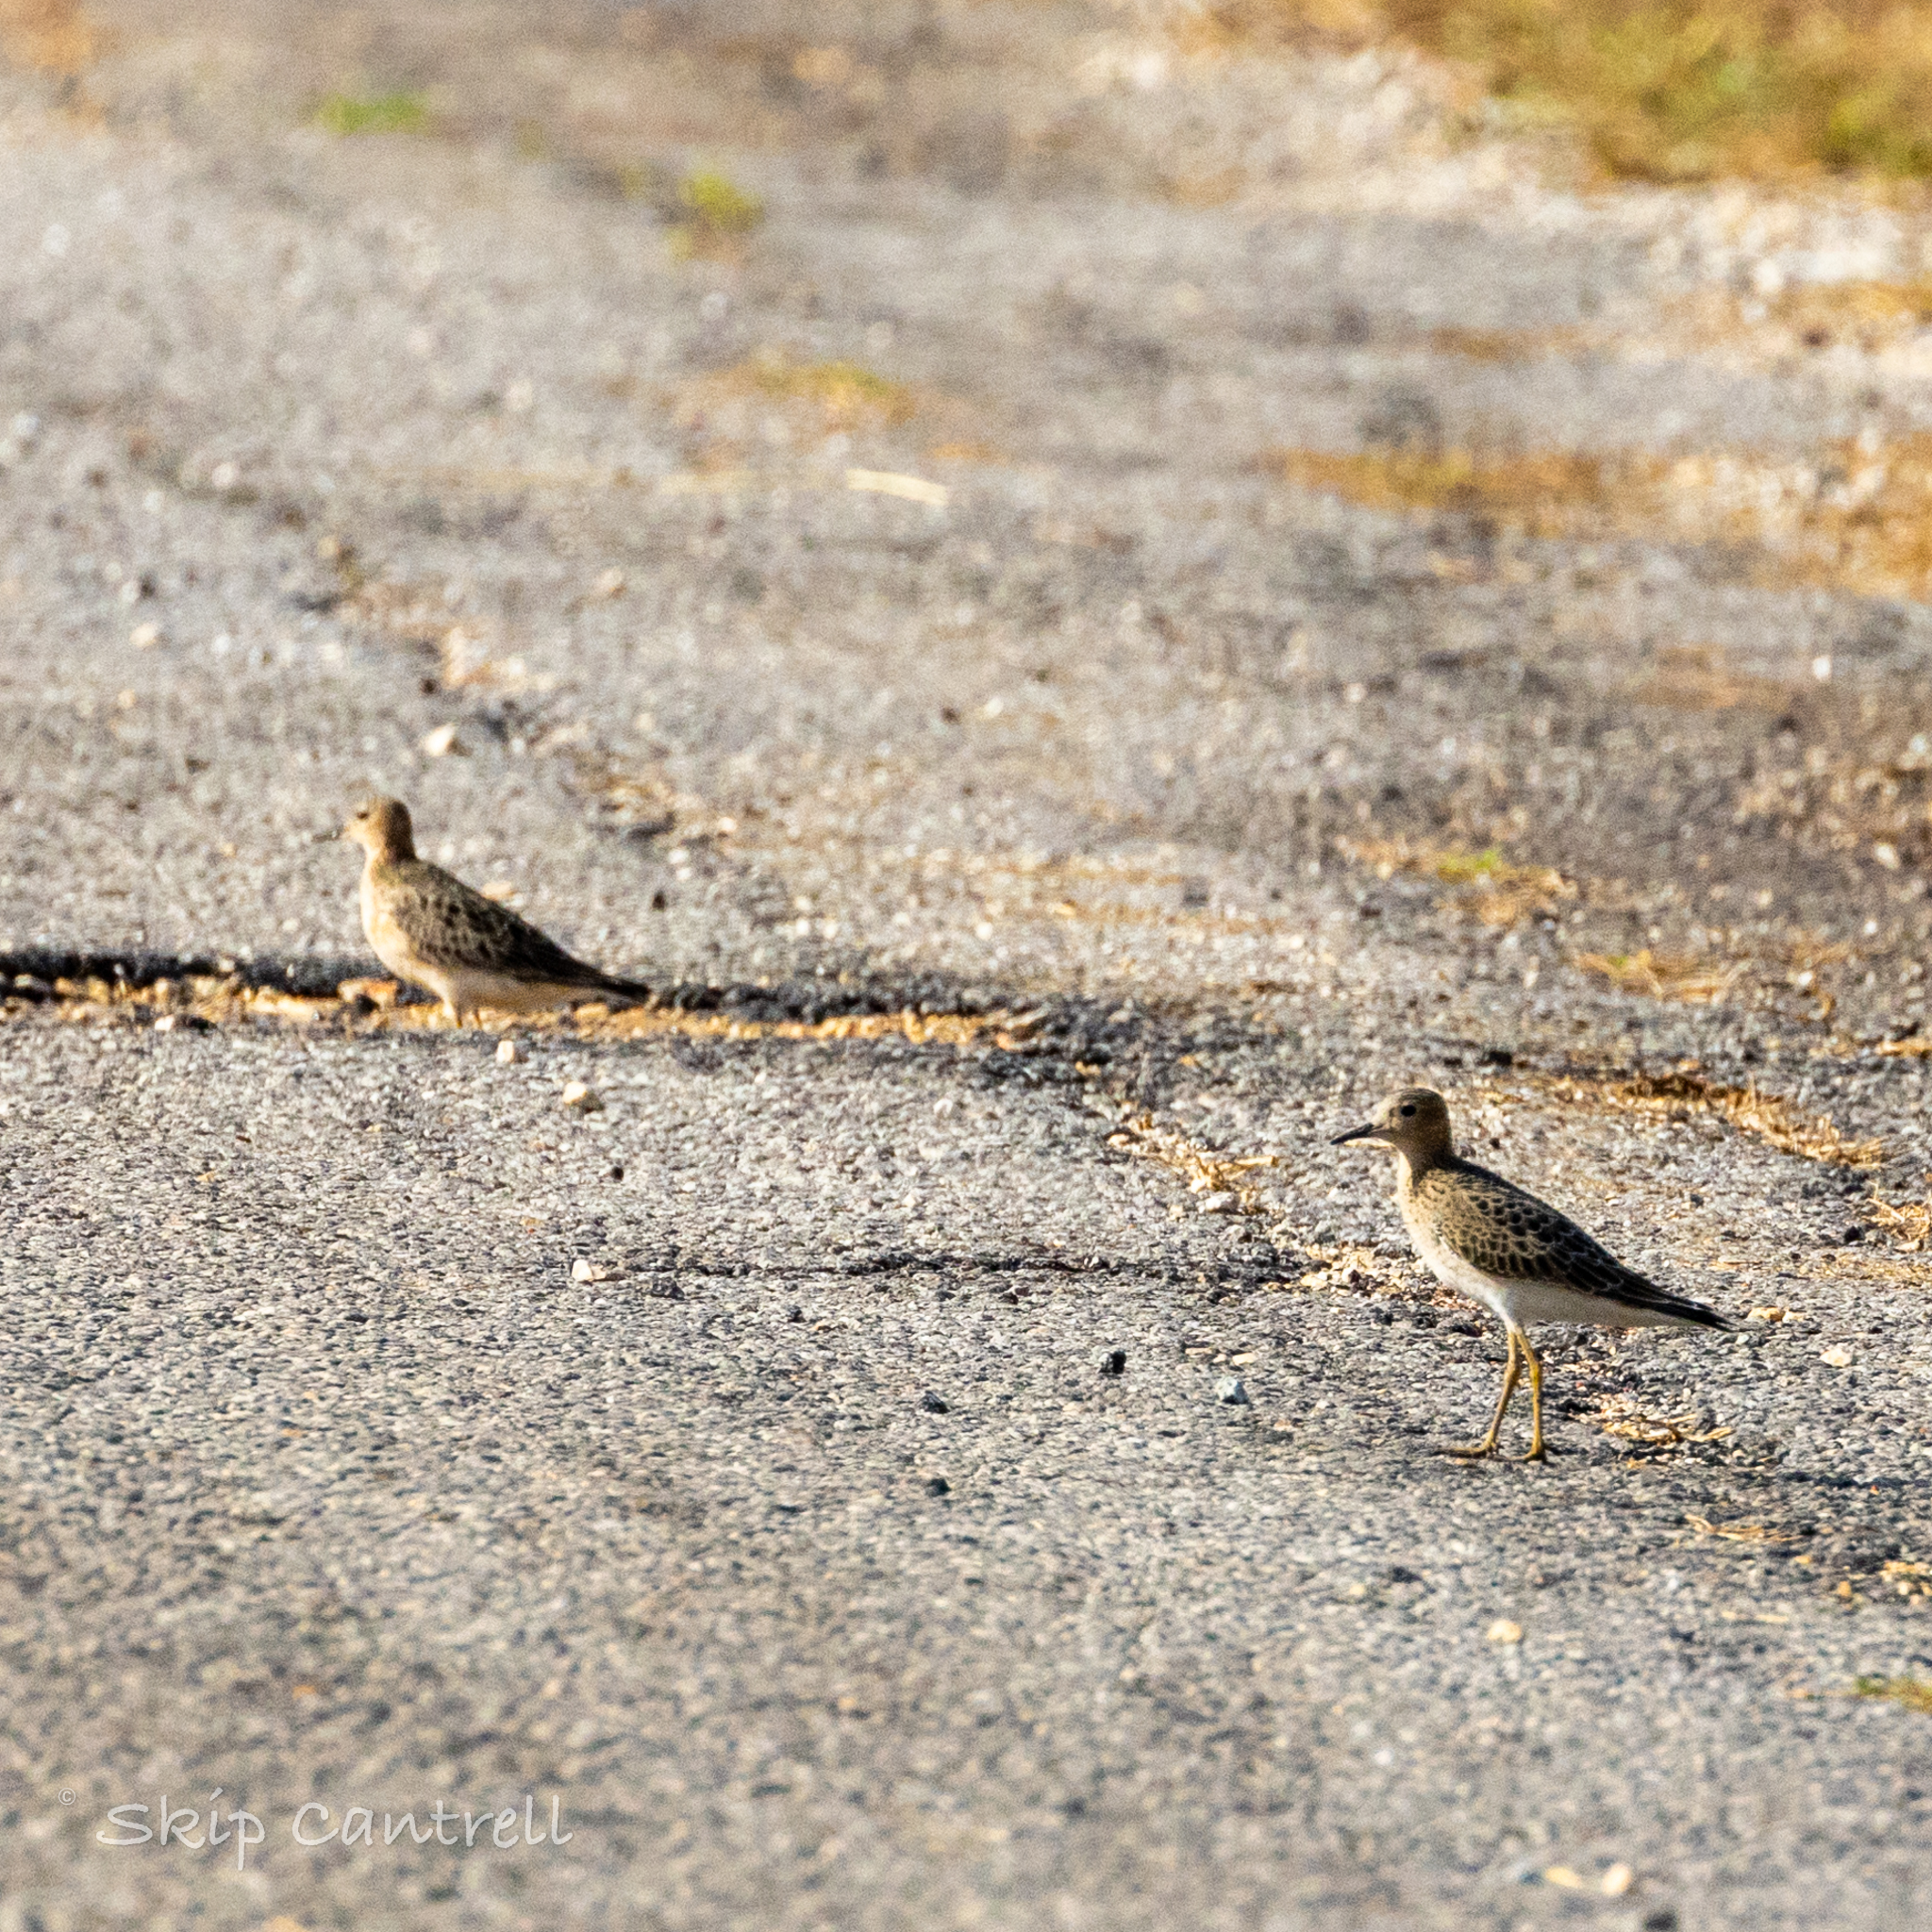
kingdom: Animalia
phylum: Chordata
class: Aves
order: Charadriiformes
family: Scolopacidae
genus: Calidris
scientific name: Calidris subruficollis
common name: Buff-breasted sandpiper
